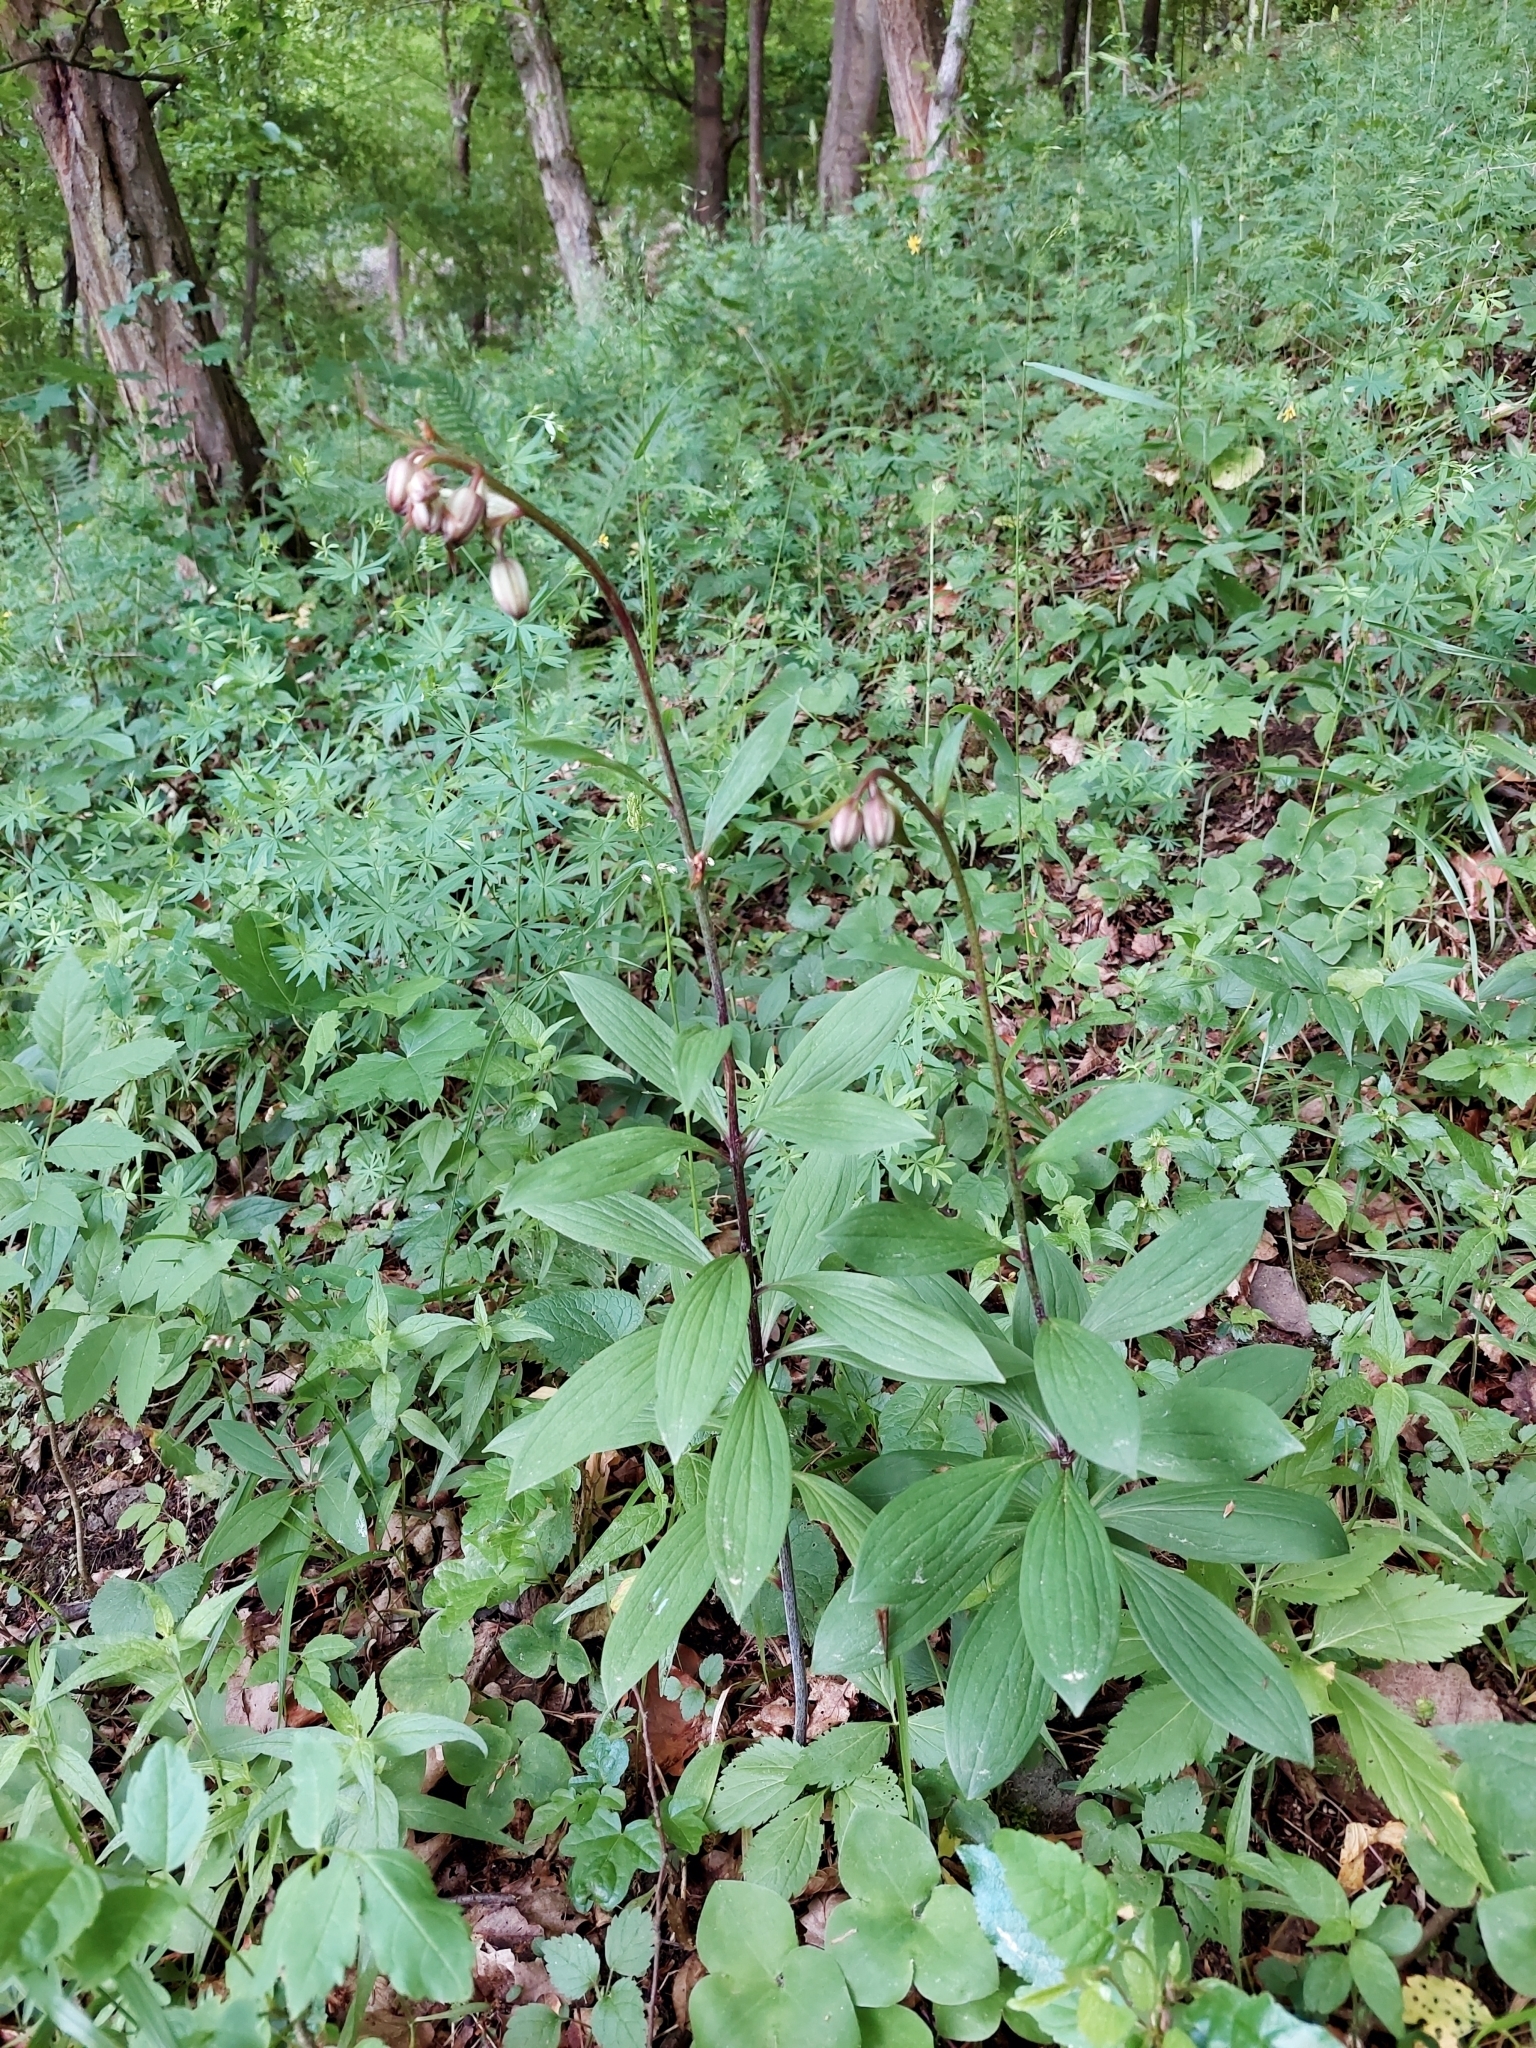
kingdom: Plantae
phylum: Tracheophyta
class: Liliopsida
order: Liliales
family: Liliaceae
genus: Lilium
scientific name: Lilium martagon
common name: Martagon lily
